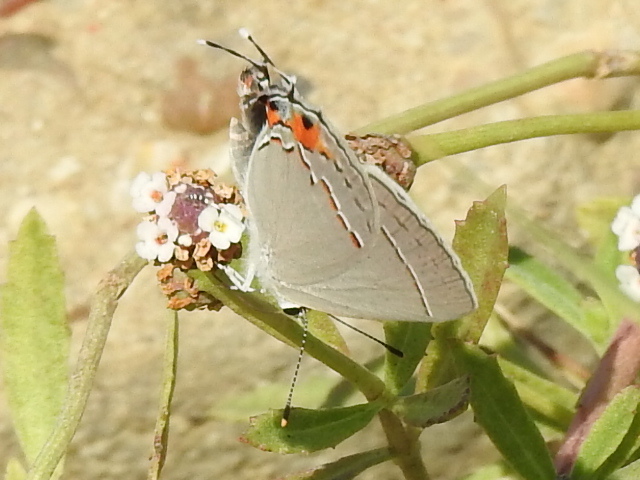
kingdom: Animalia
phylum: Arthropoda
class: Insecta
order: Lepidoptera
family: Lycaenidae
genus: Strymon
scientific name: Strymon melinus
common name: Gray hairstreak
